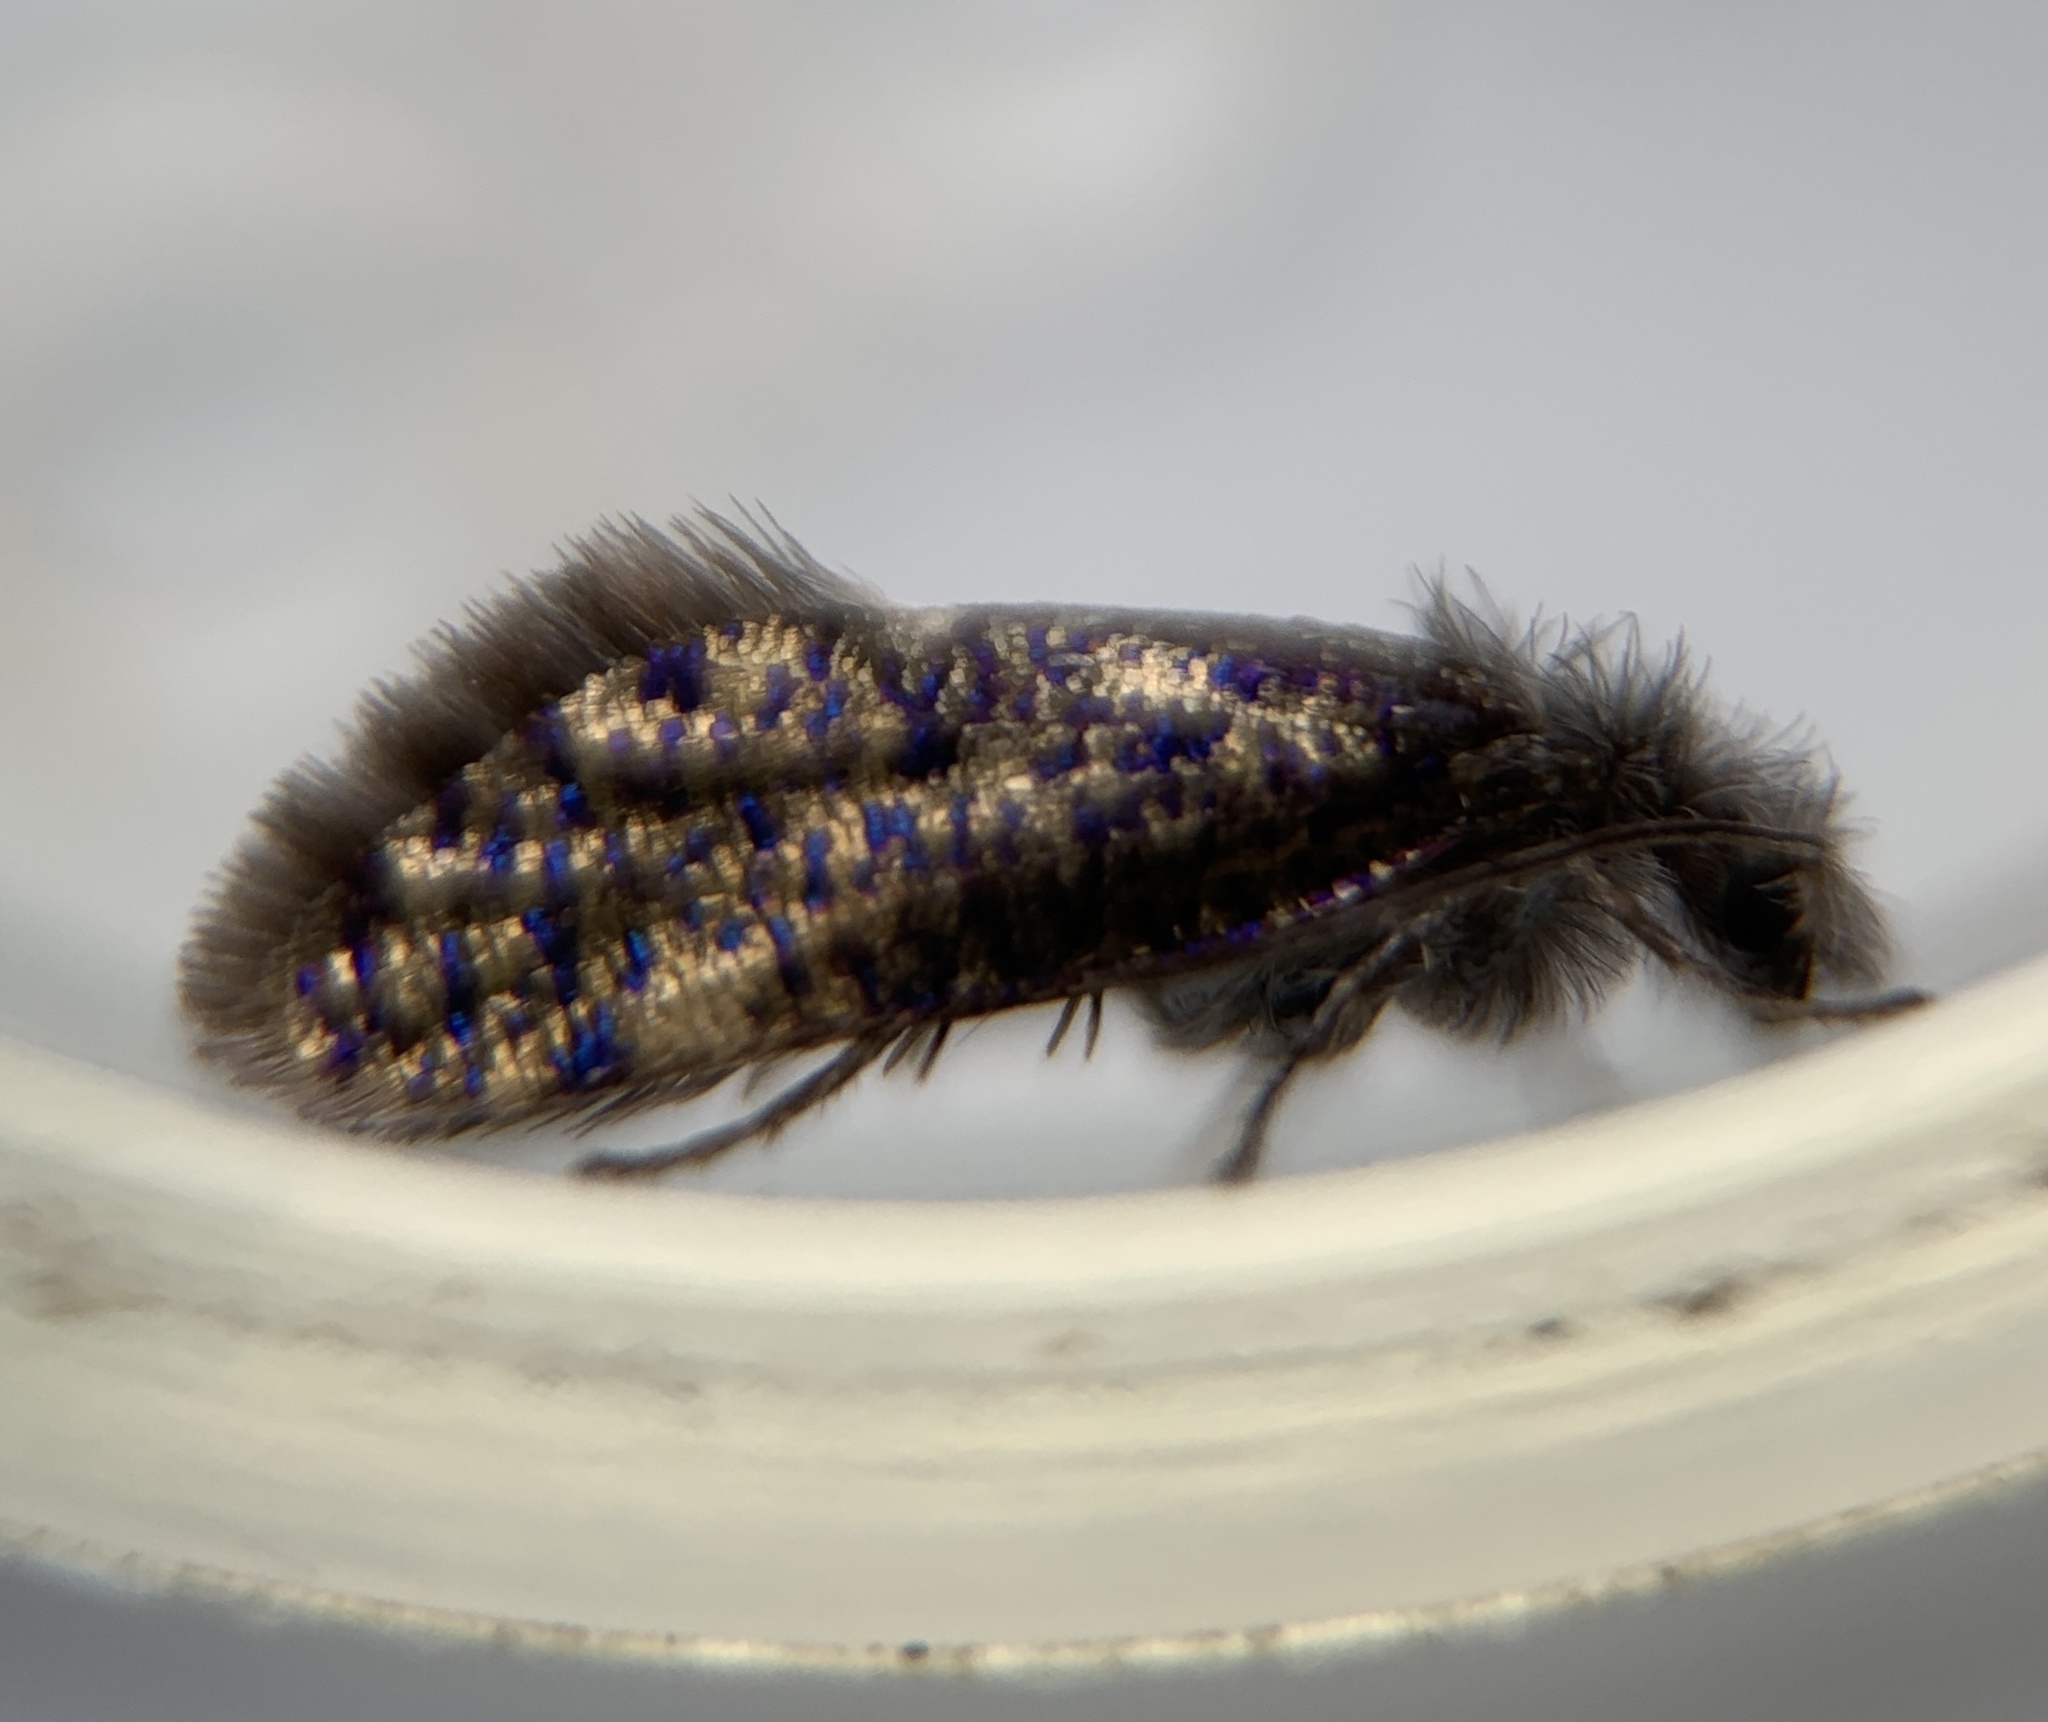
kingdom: Animalia
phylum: Arthropoda
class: Insecta
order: Lepidoptera
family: Eriocraniidae
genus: Dyseriocrania
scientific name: Dyseriocrania griseocapitella
